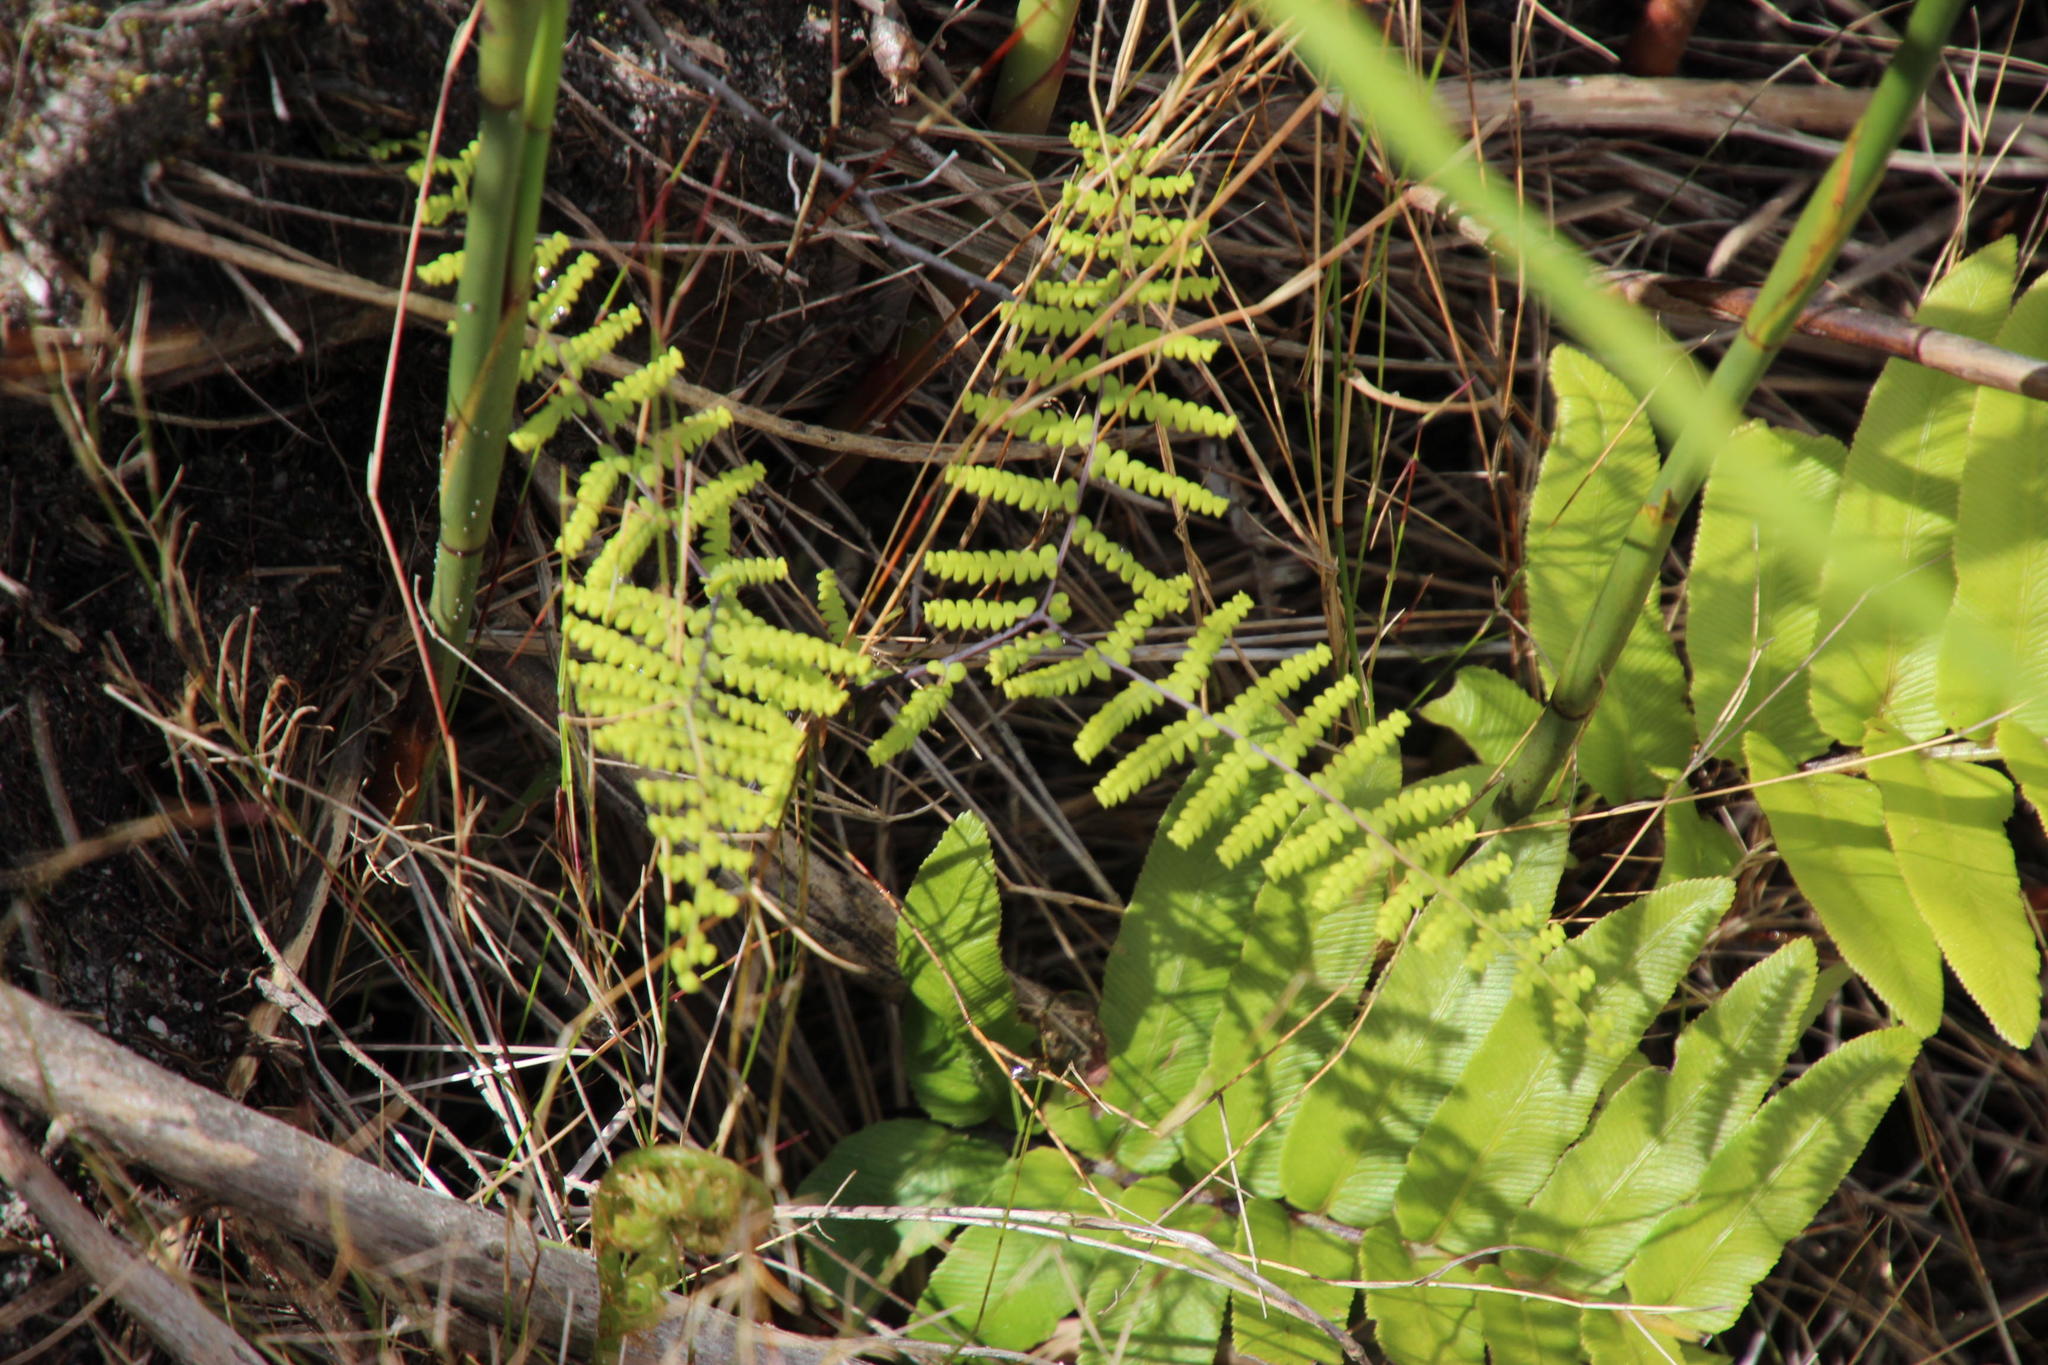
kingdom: Plantae
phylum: Tracheophyta
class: Polypodiopsida
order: Gleicheniales
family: Gleicheniaceae
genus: Gleichenia
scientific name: Gleichenia polypodioides
